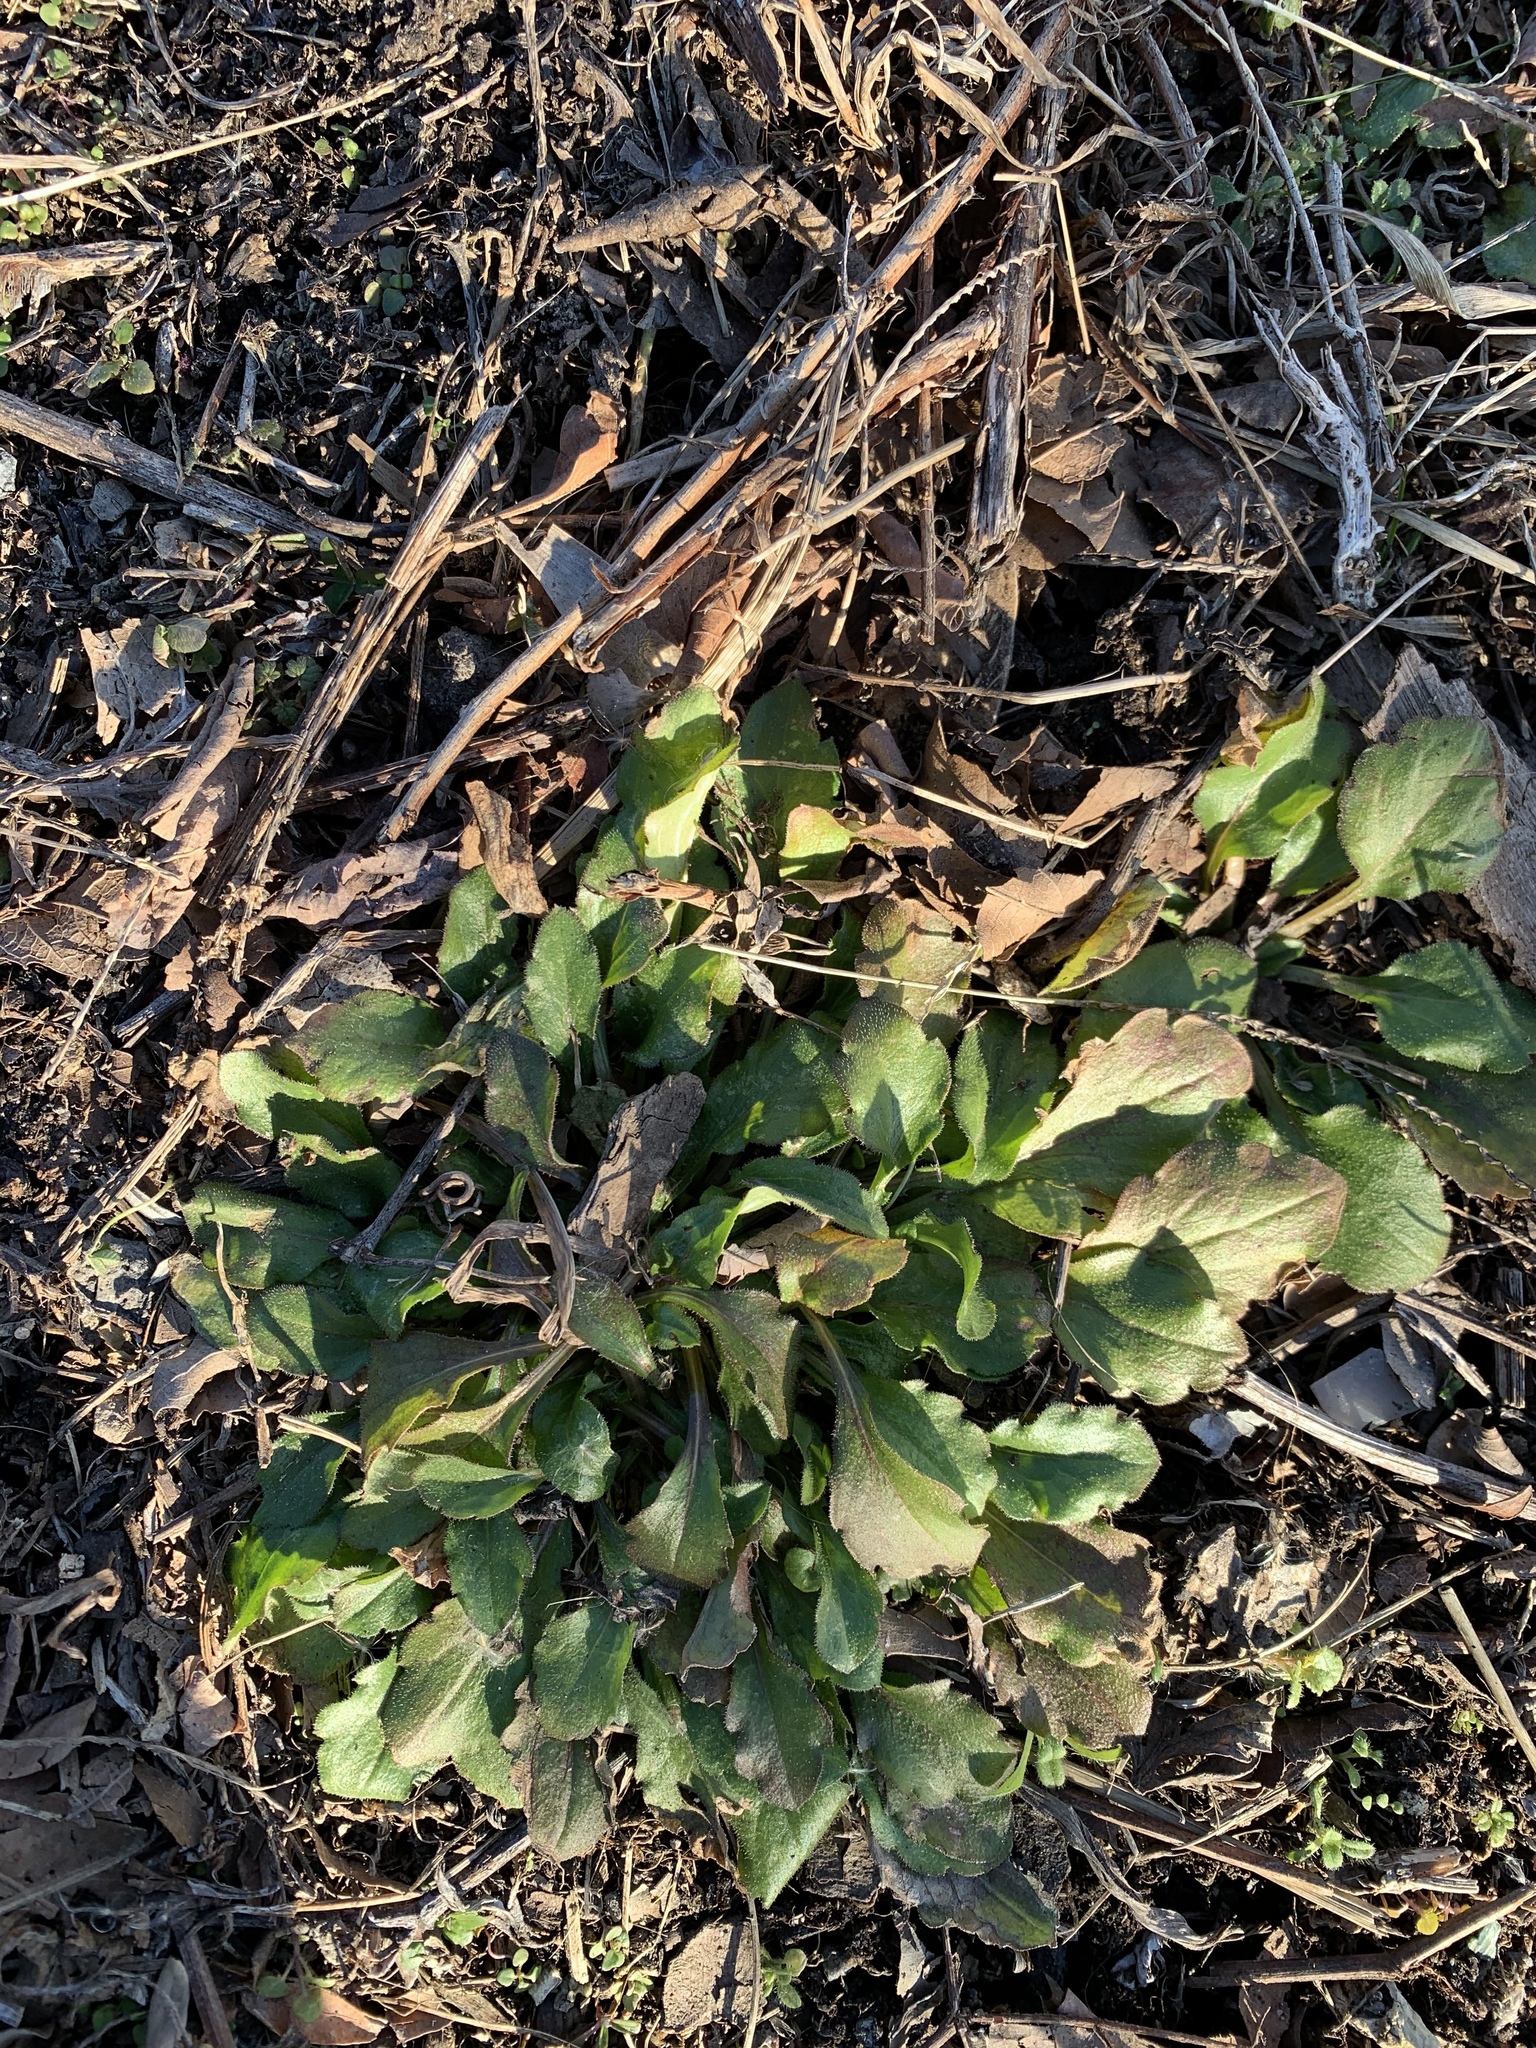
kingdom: Plantae
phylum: Tracheophyta
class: Magnoliopsida
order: Asterales
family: Asteraceae
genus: Erigeron
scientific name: Erigeron canadensis
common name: Canadian fleabane
